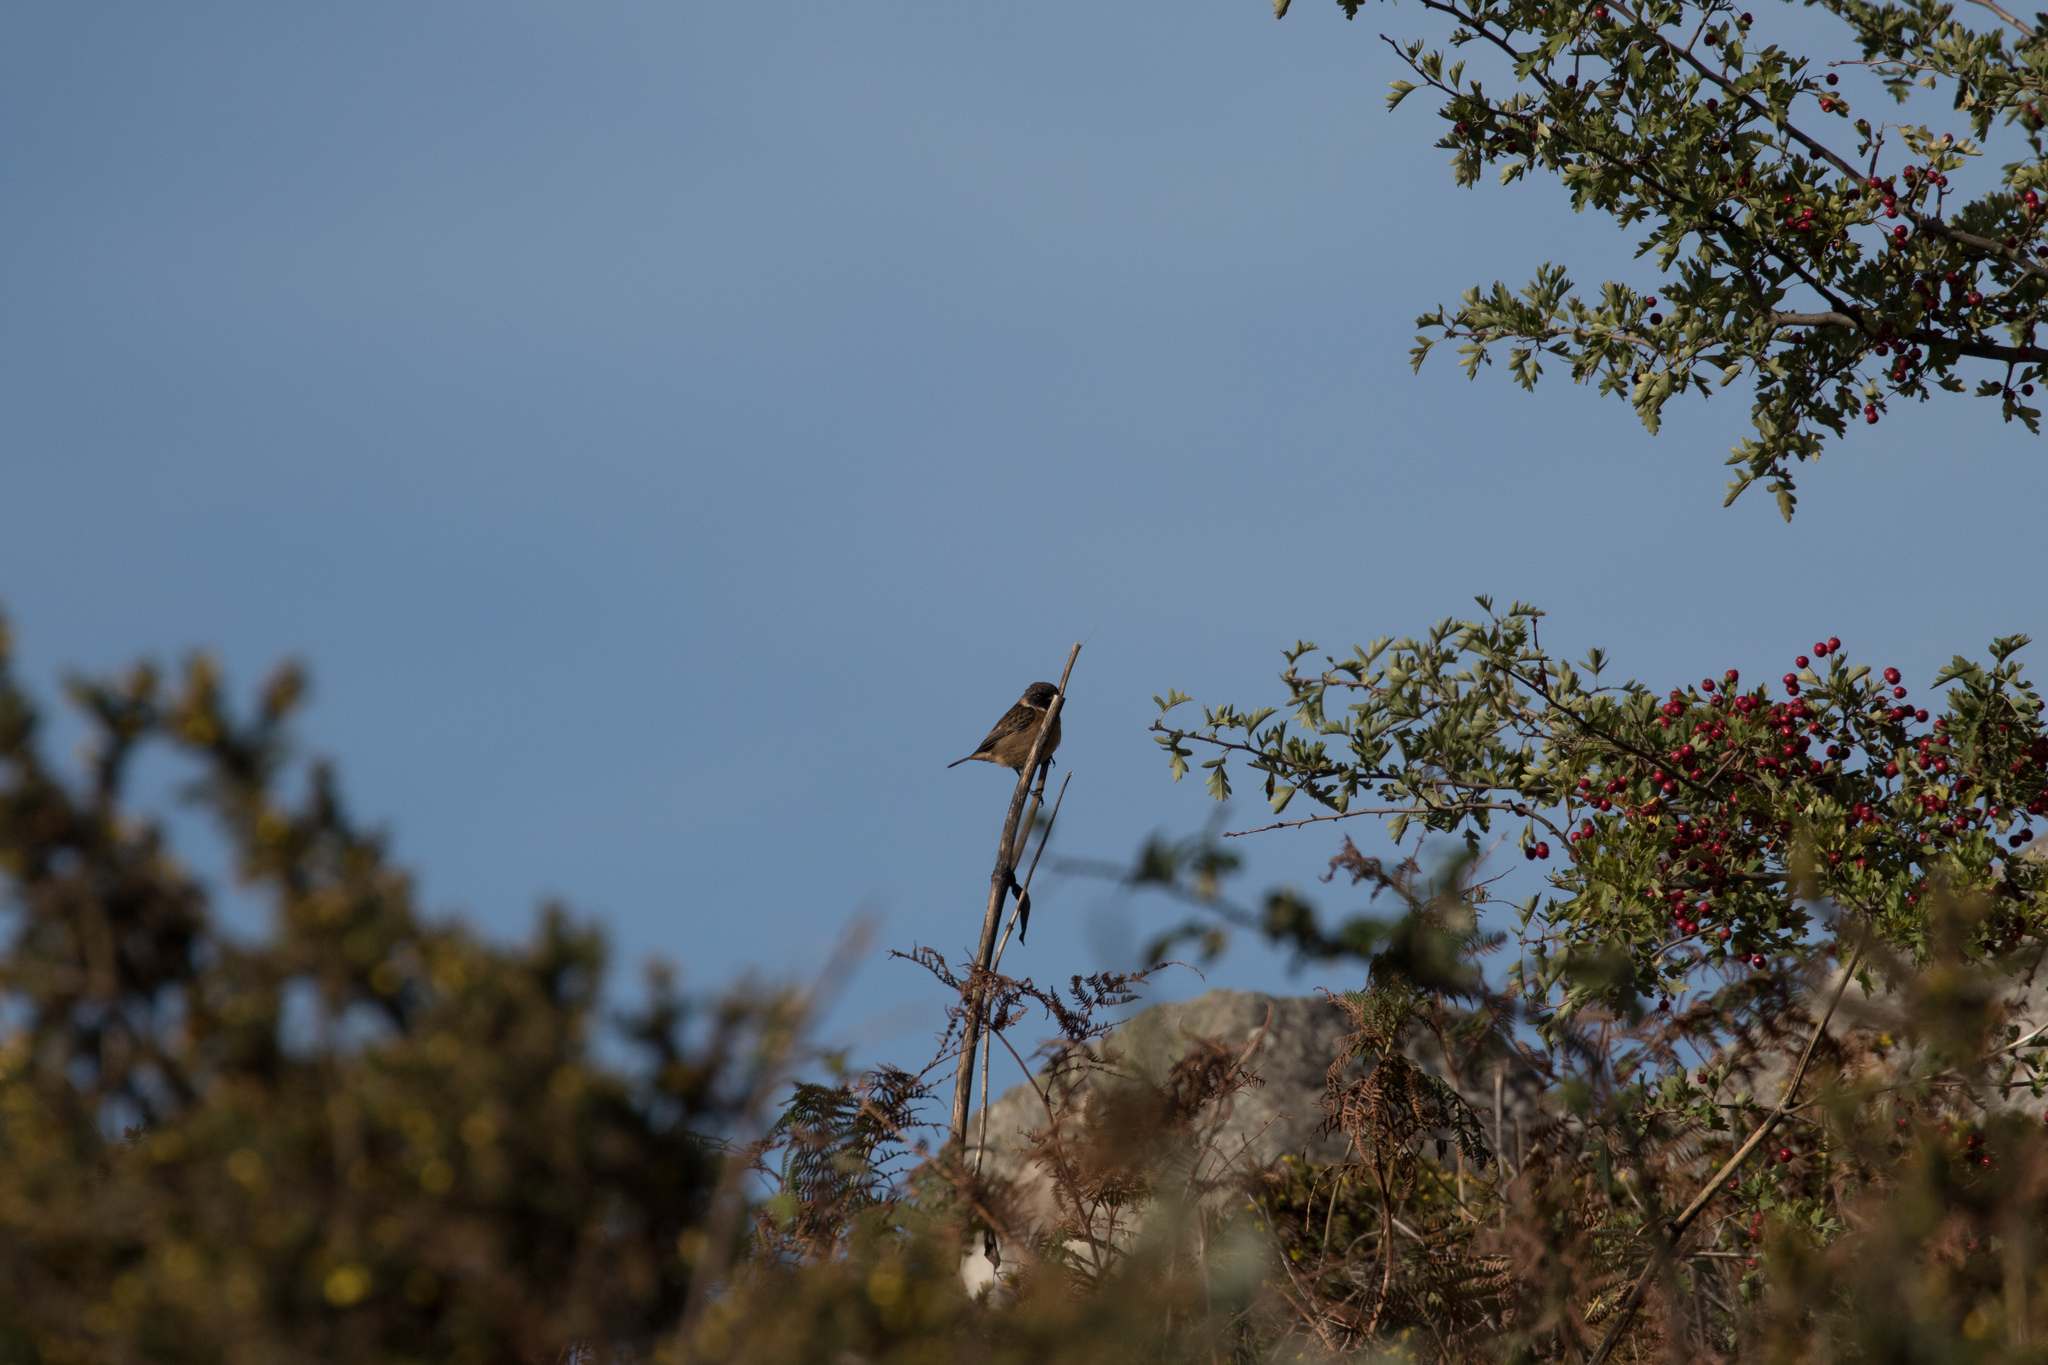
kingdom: Animalia
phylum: Chordata
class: Aves
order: Passeriformes
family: Muscicapidae
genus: Saxicola
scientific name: Saxicola rubicola
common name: European stonechat
